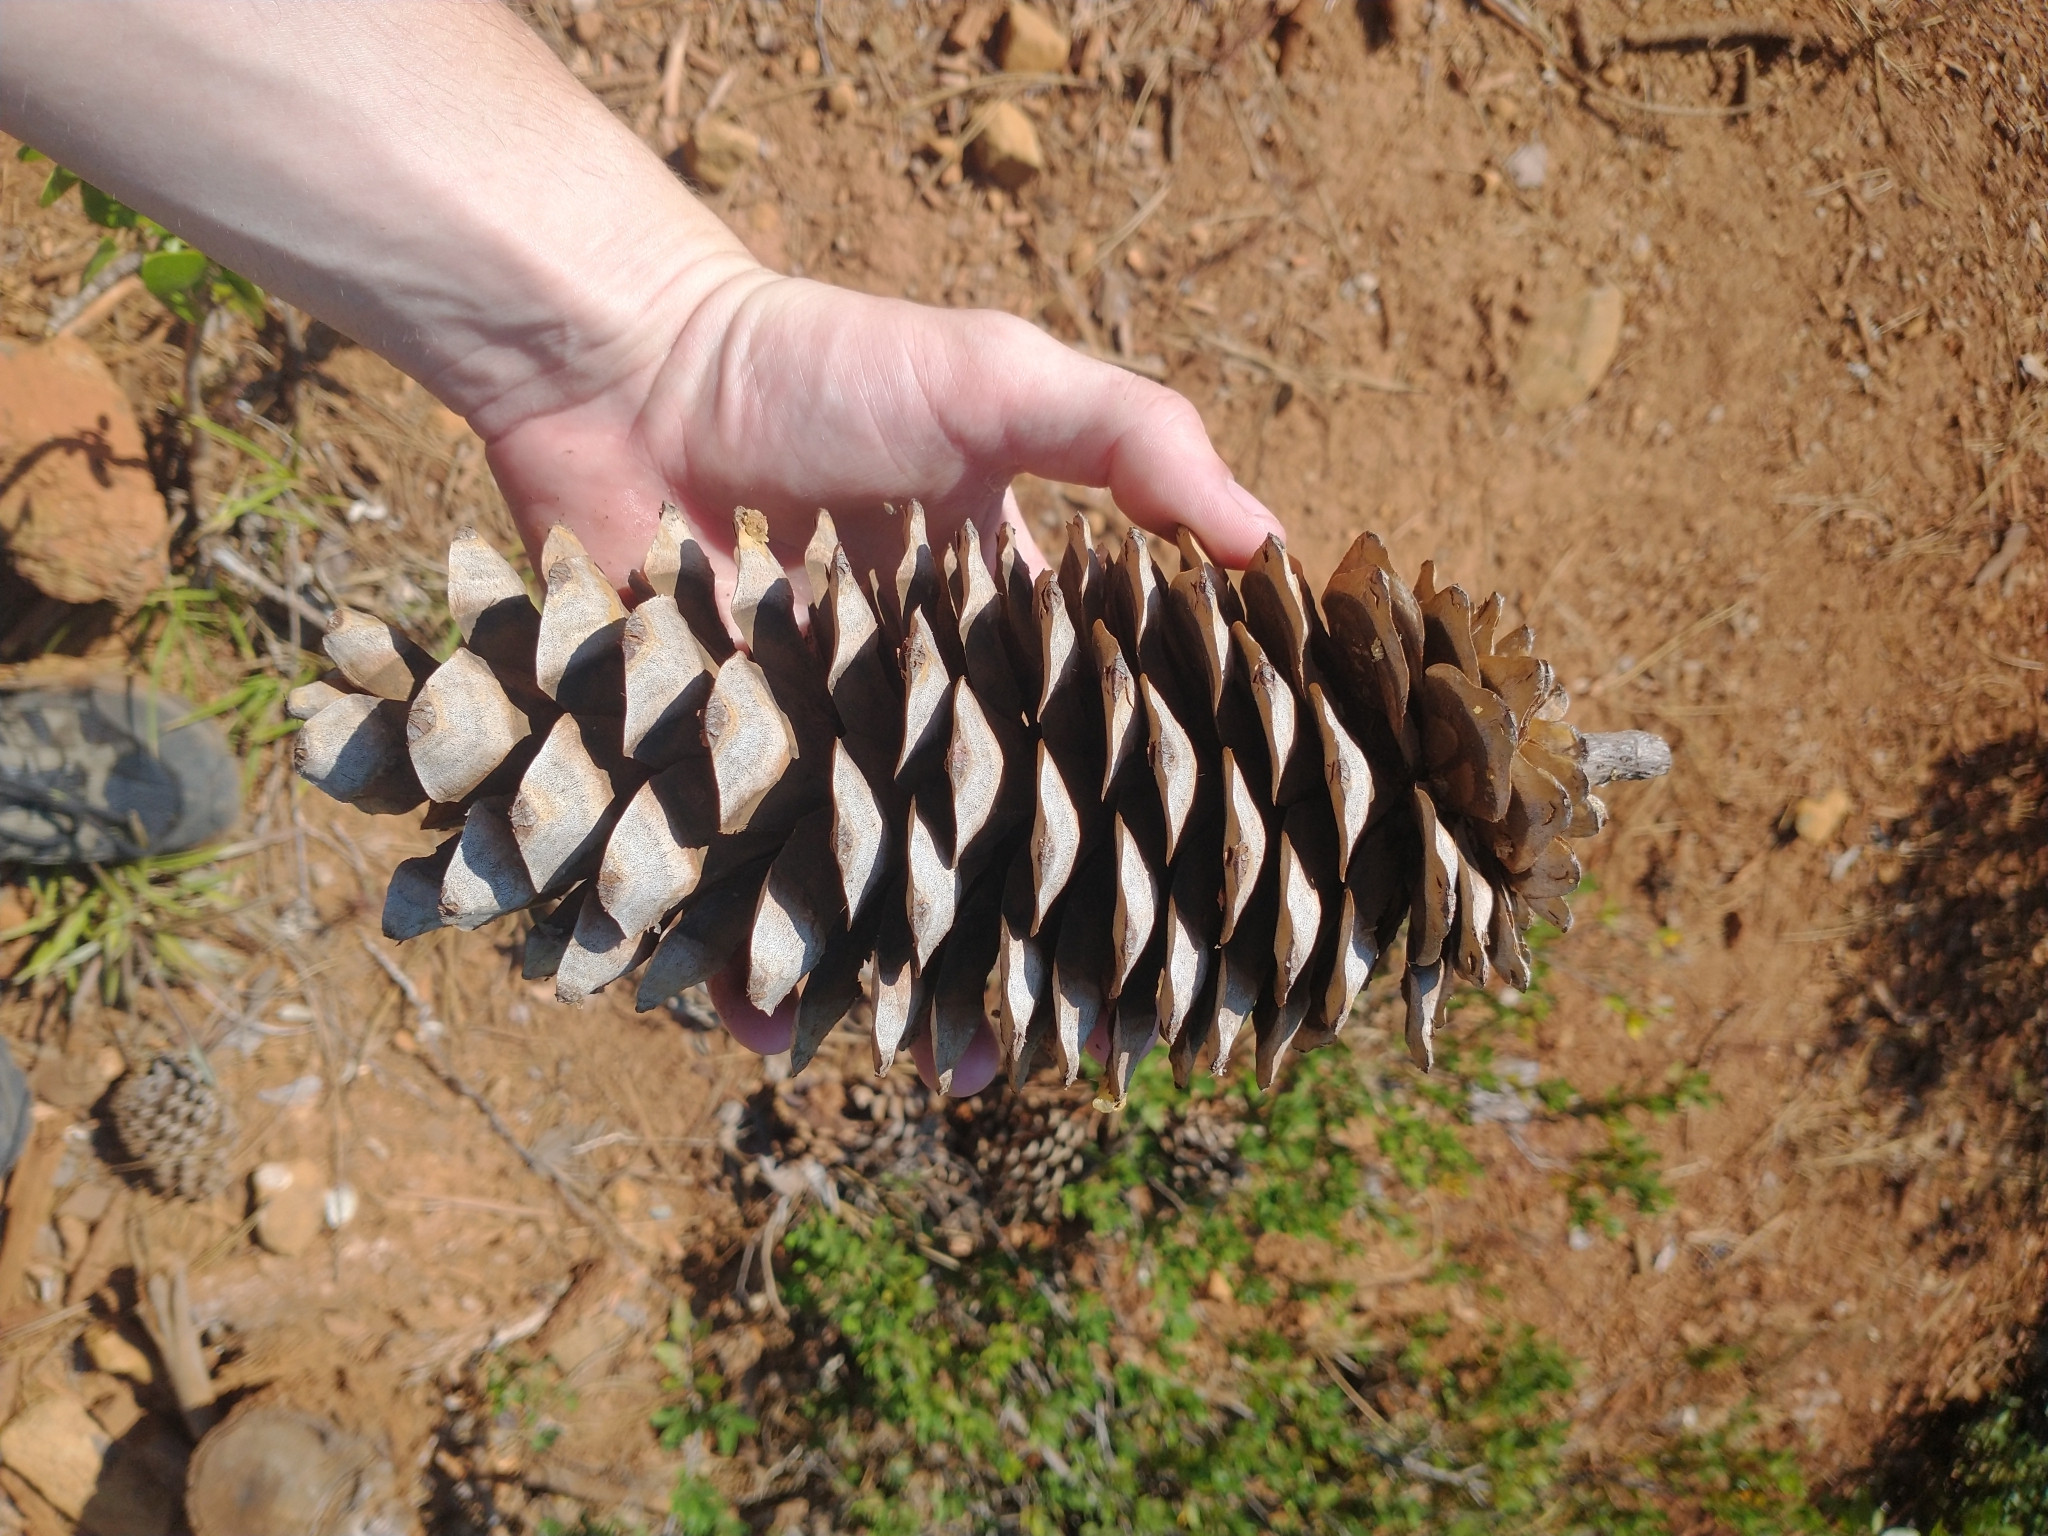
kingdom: Plantae
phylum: Tracheophyta
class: Pinopsida
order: Pinales
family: Pinaceae
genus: Pinus
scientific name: Pinus lambertiana
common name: Sugar pine
